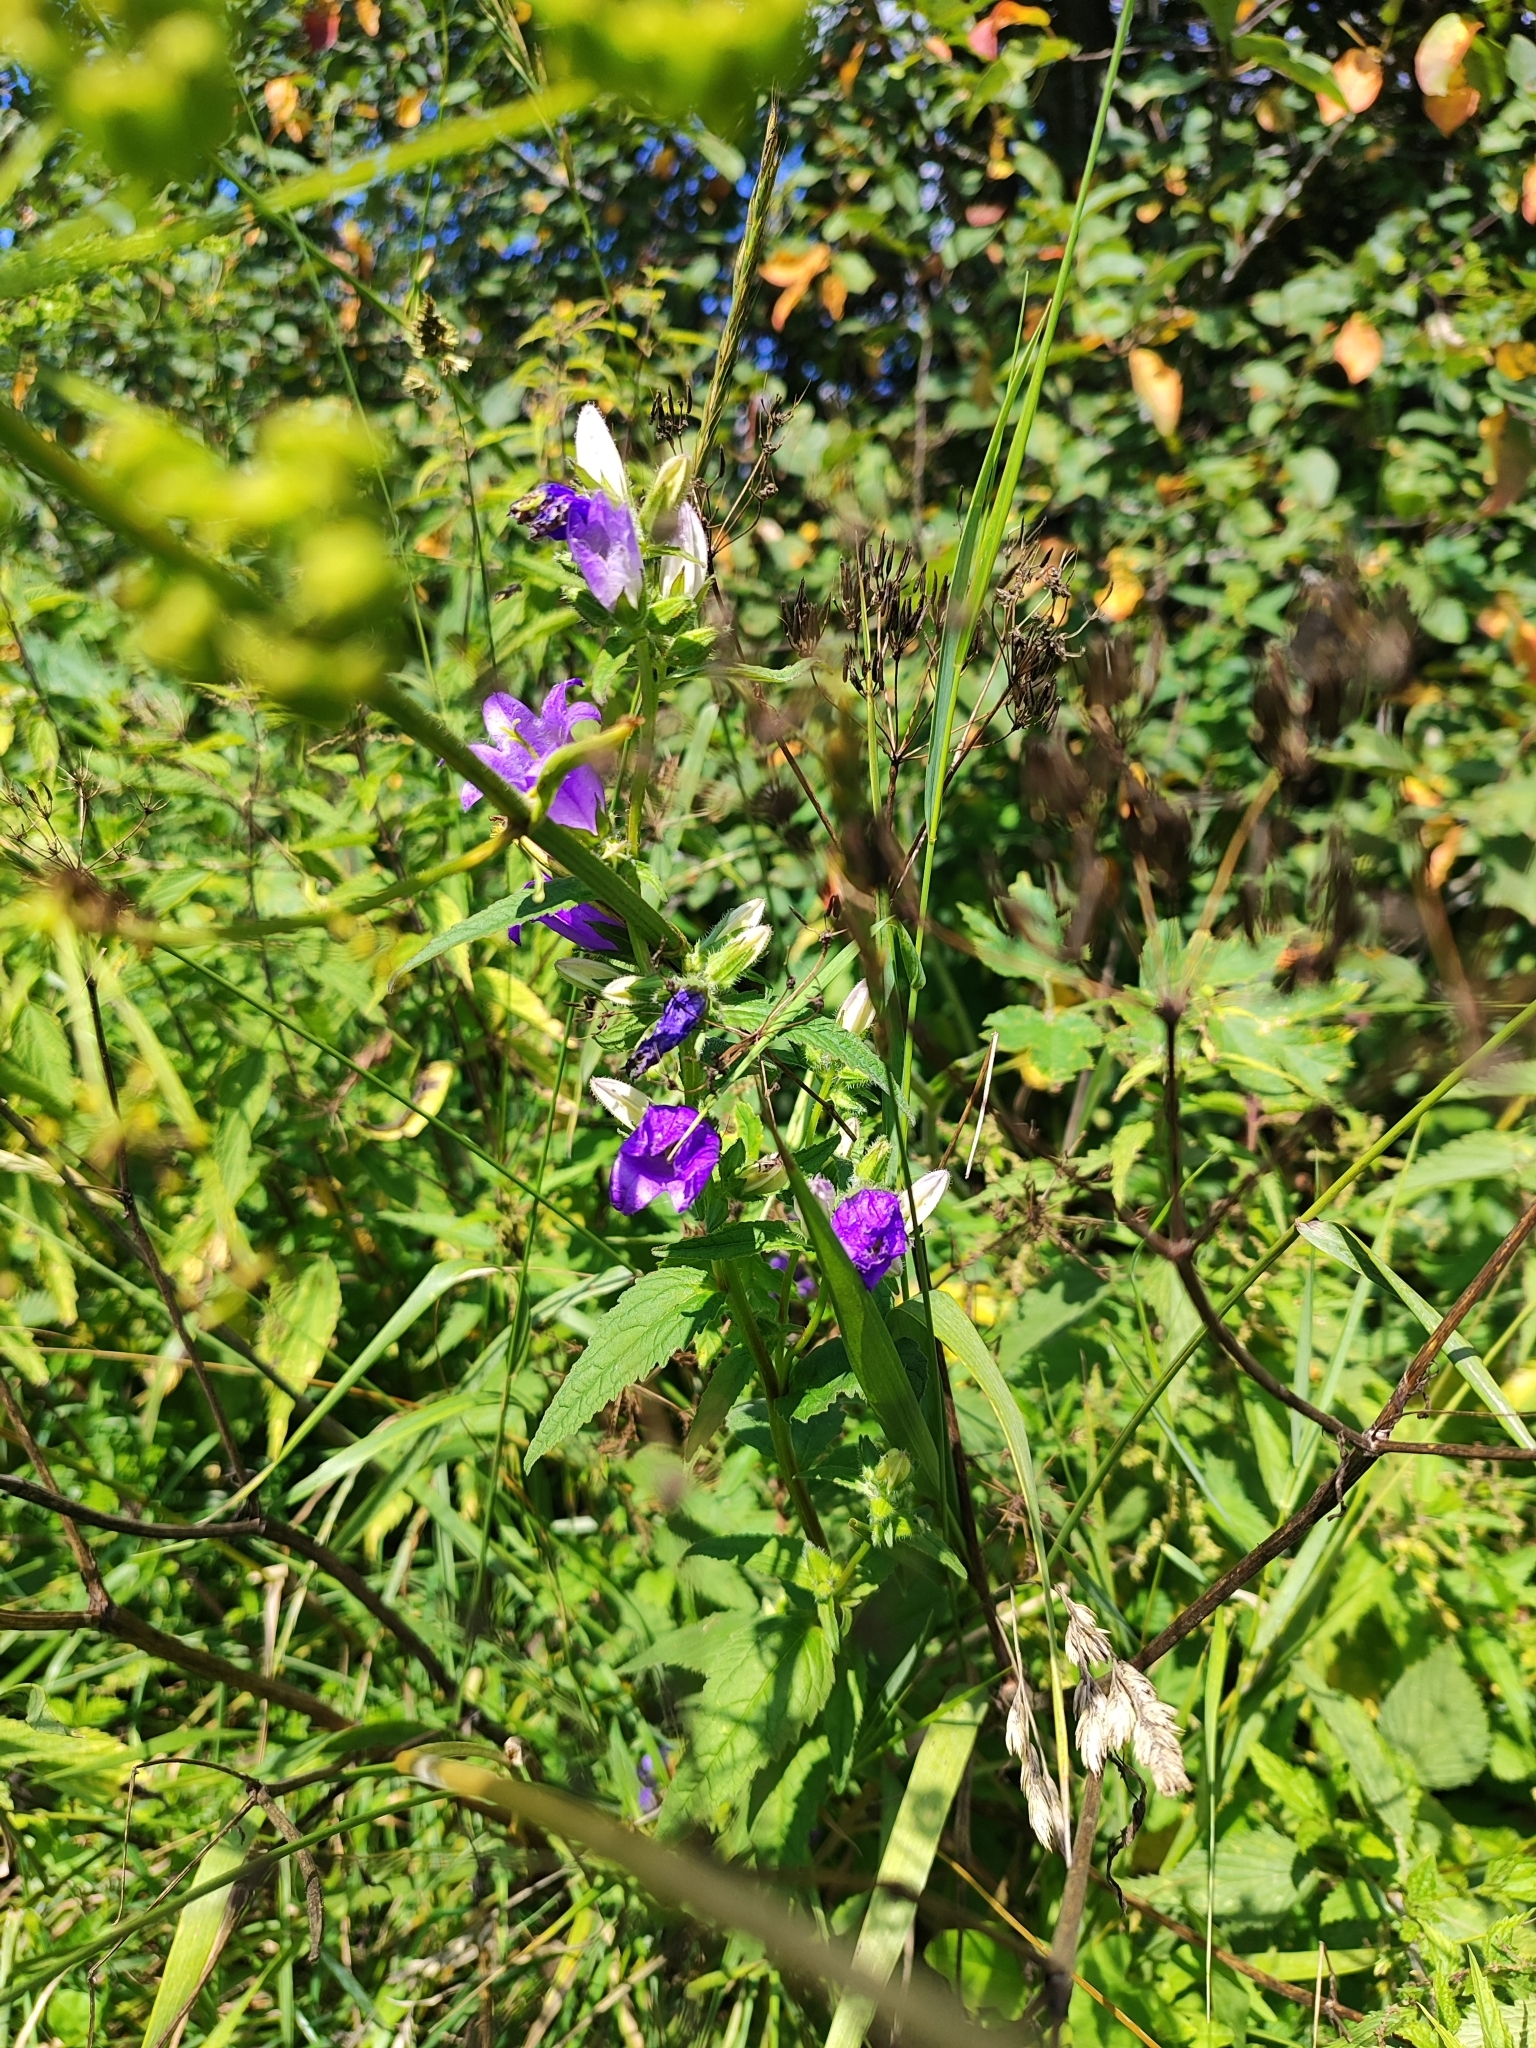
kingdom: Plantae
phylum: Tracheophyta
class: Magnoliopsida
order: Asterales
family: Campanulaceae
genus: Campanula
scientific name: Campanula trachelium
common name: Nettle-leaved bellflower
